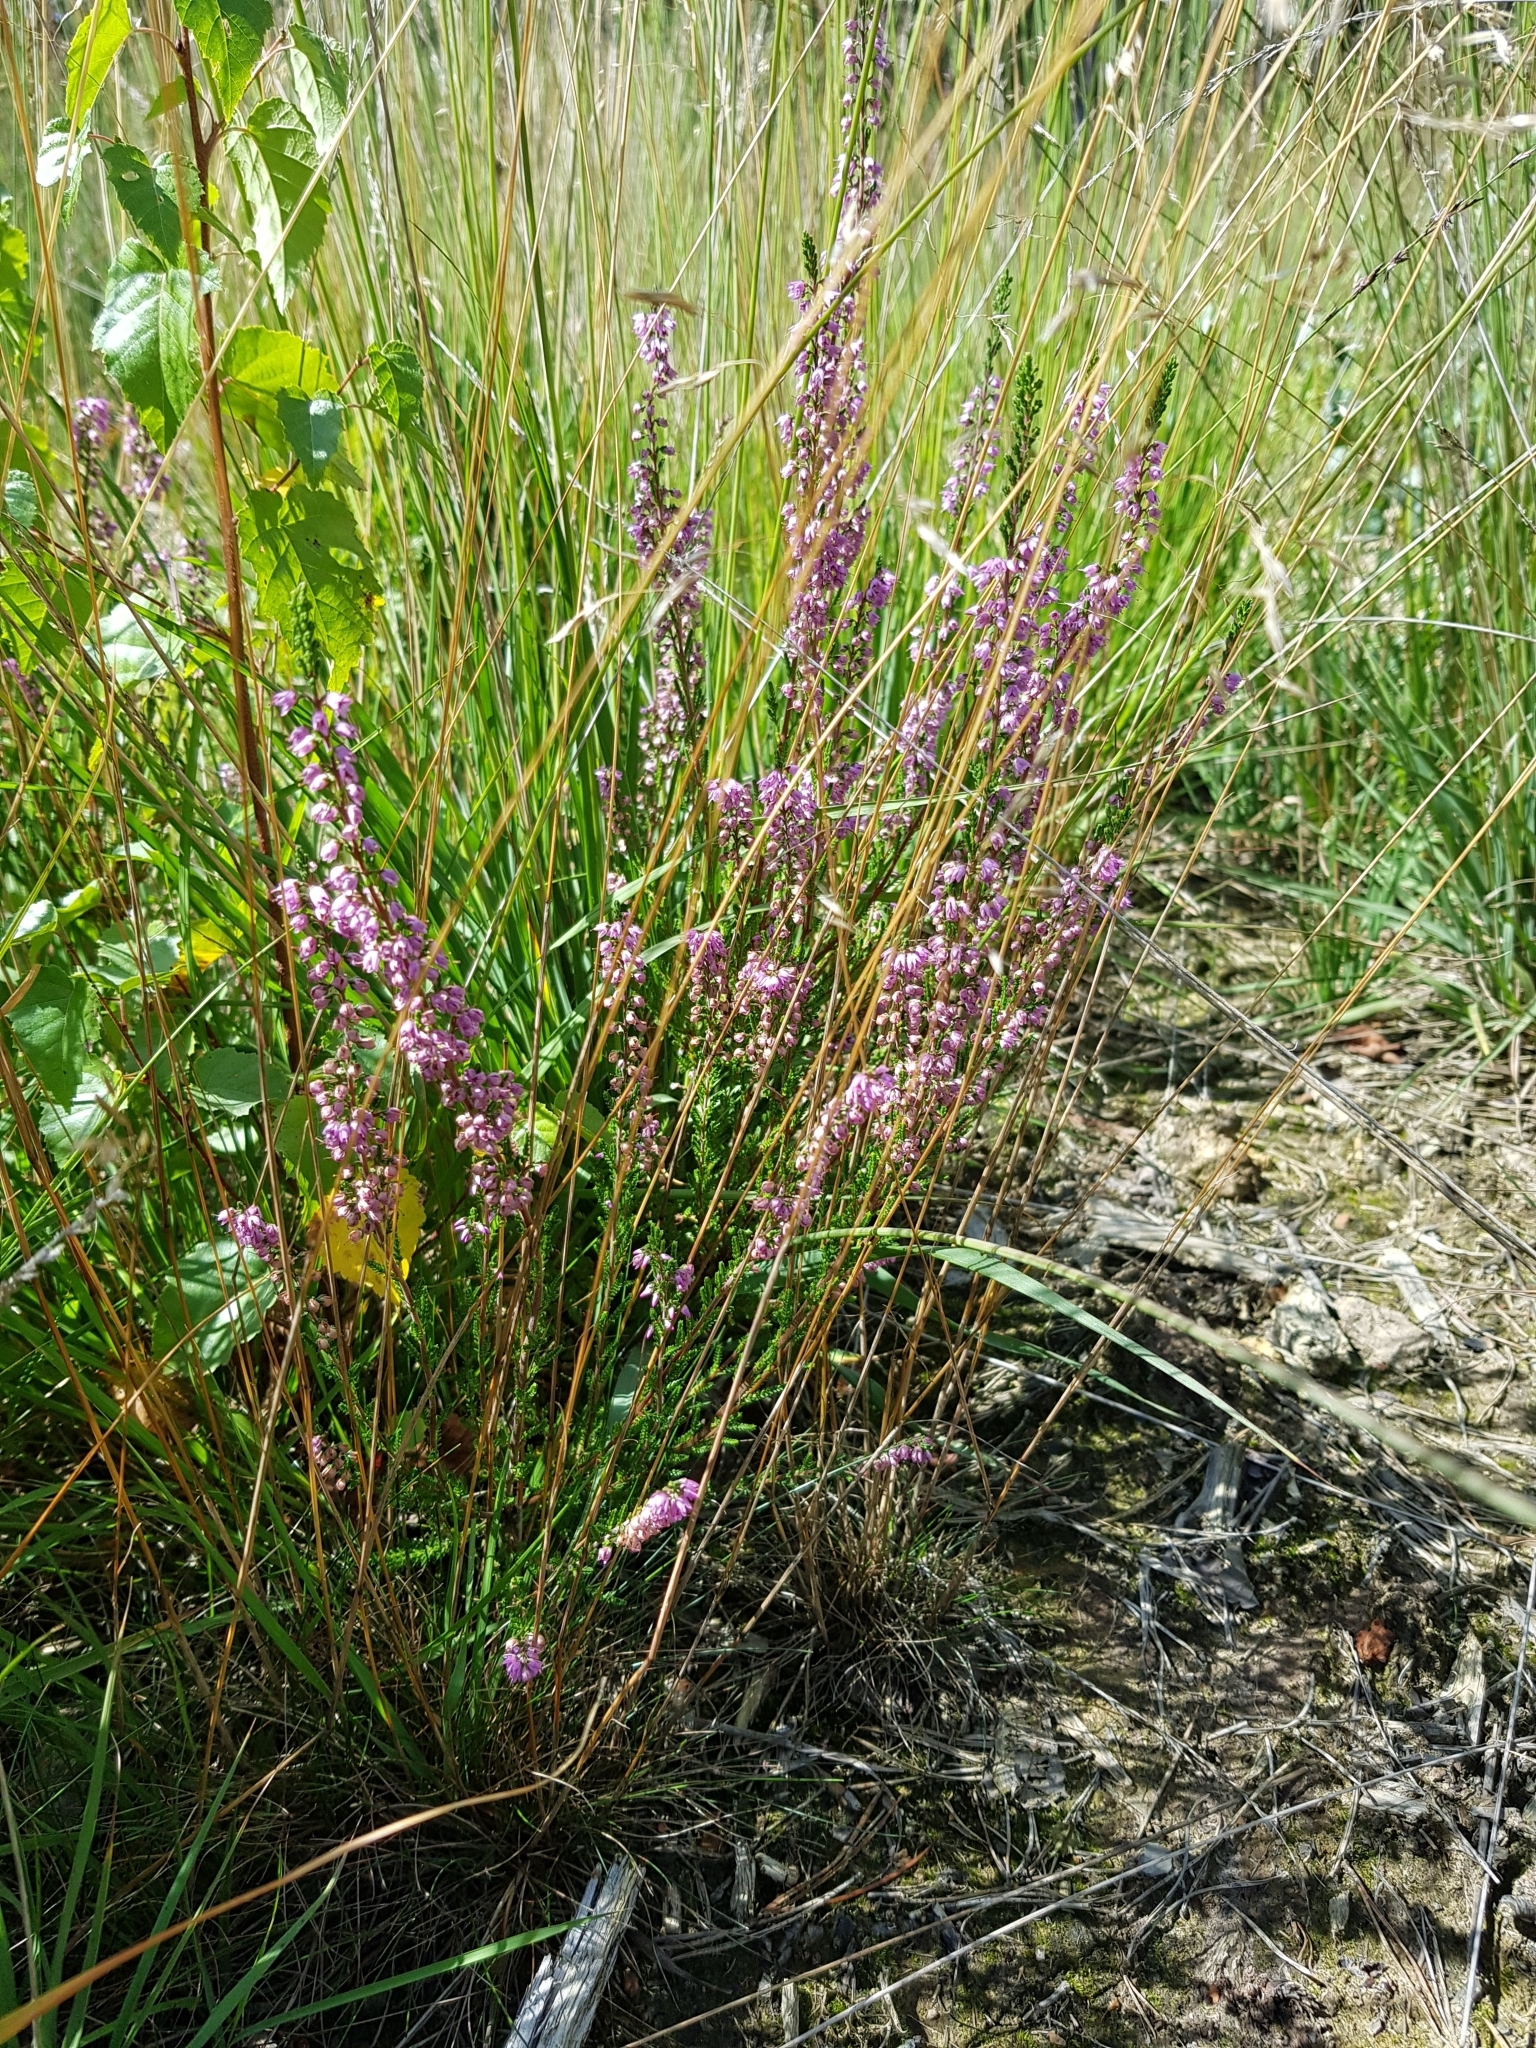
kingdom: Plantae
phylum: Tracheophyta
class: Magnoliopsida
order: Ericales
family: Ericaceae
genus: Calluna
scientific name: Calluna vulgaris
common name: Heather
